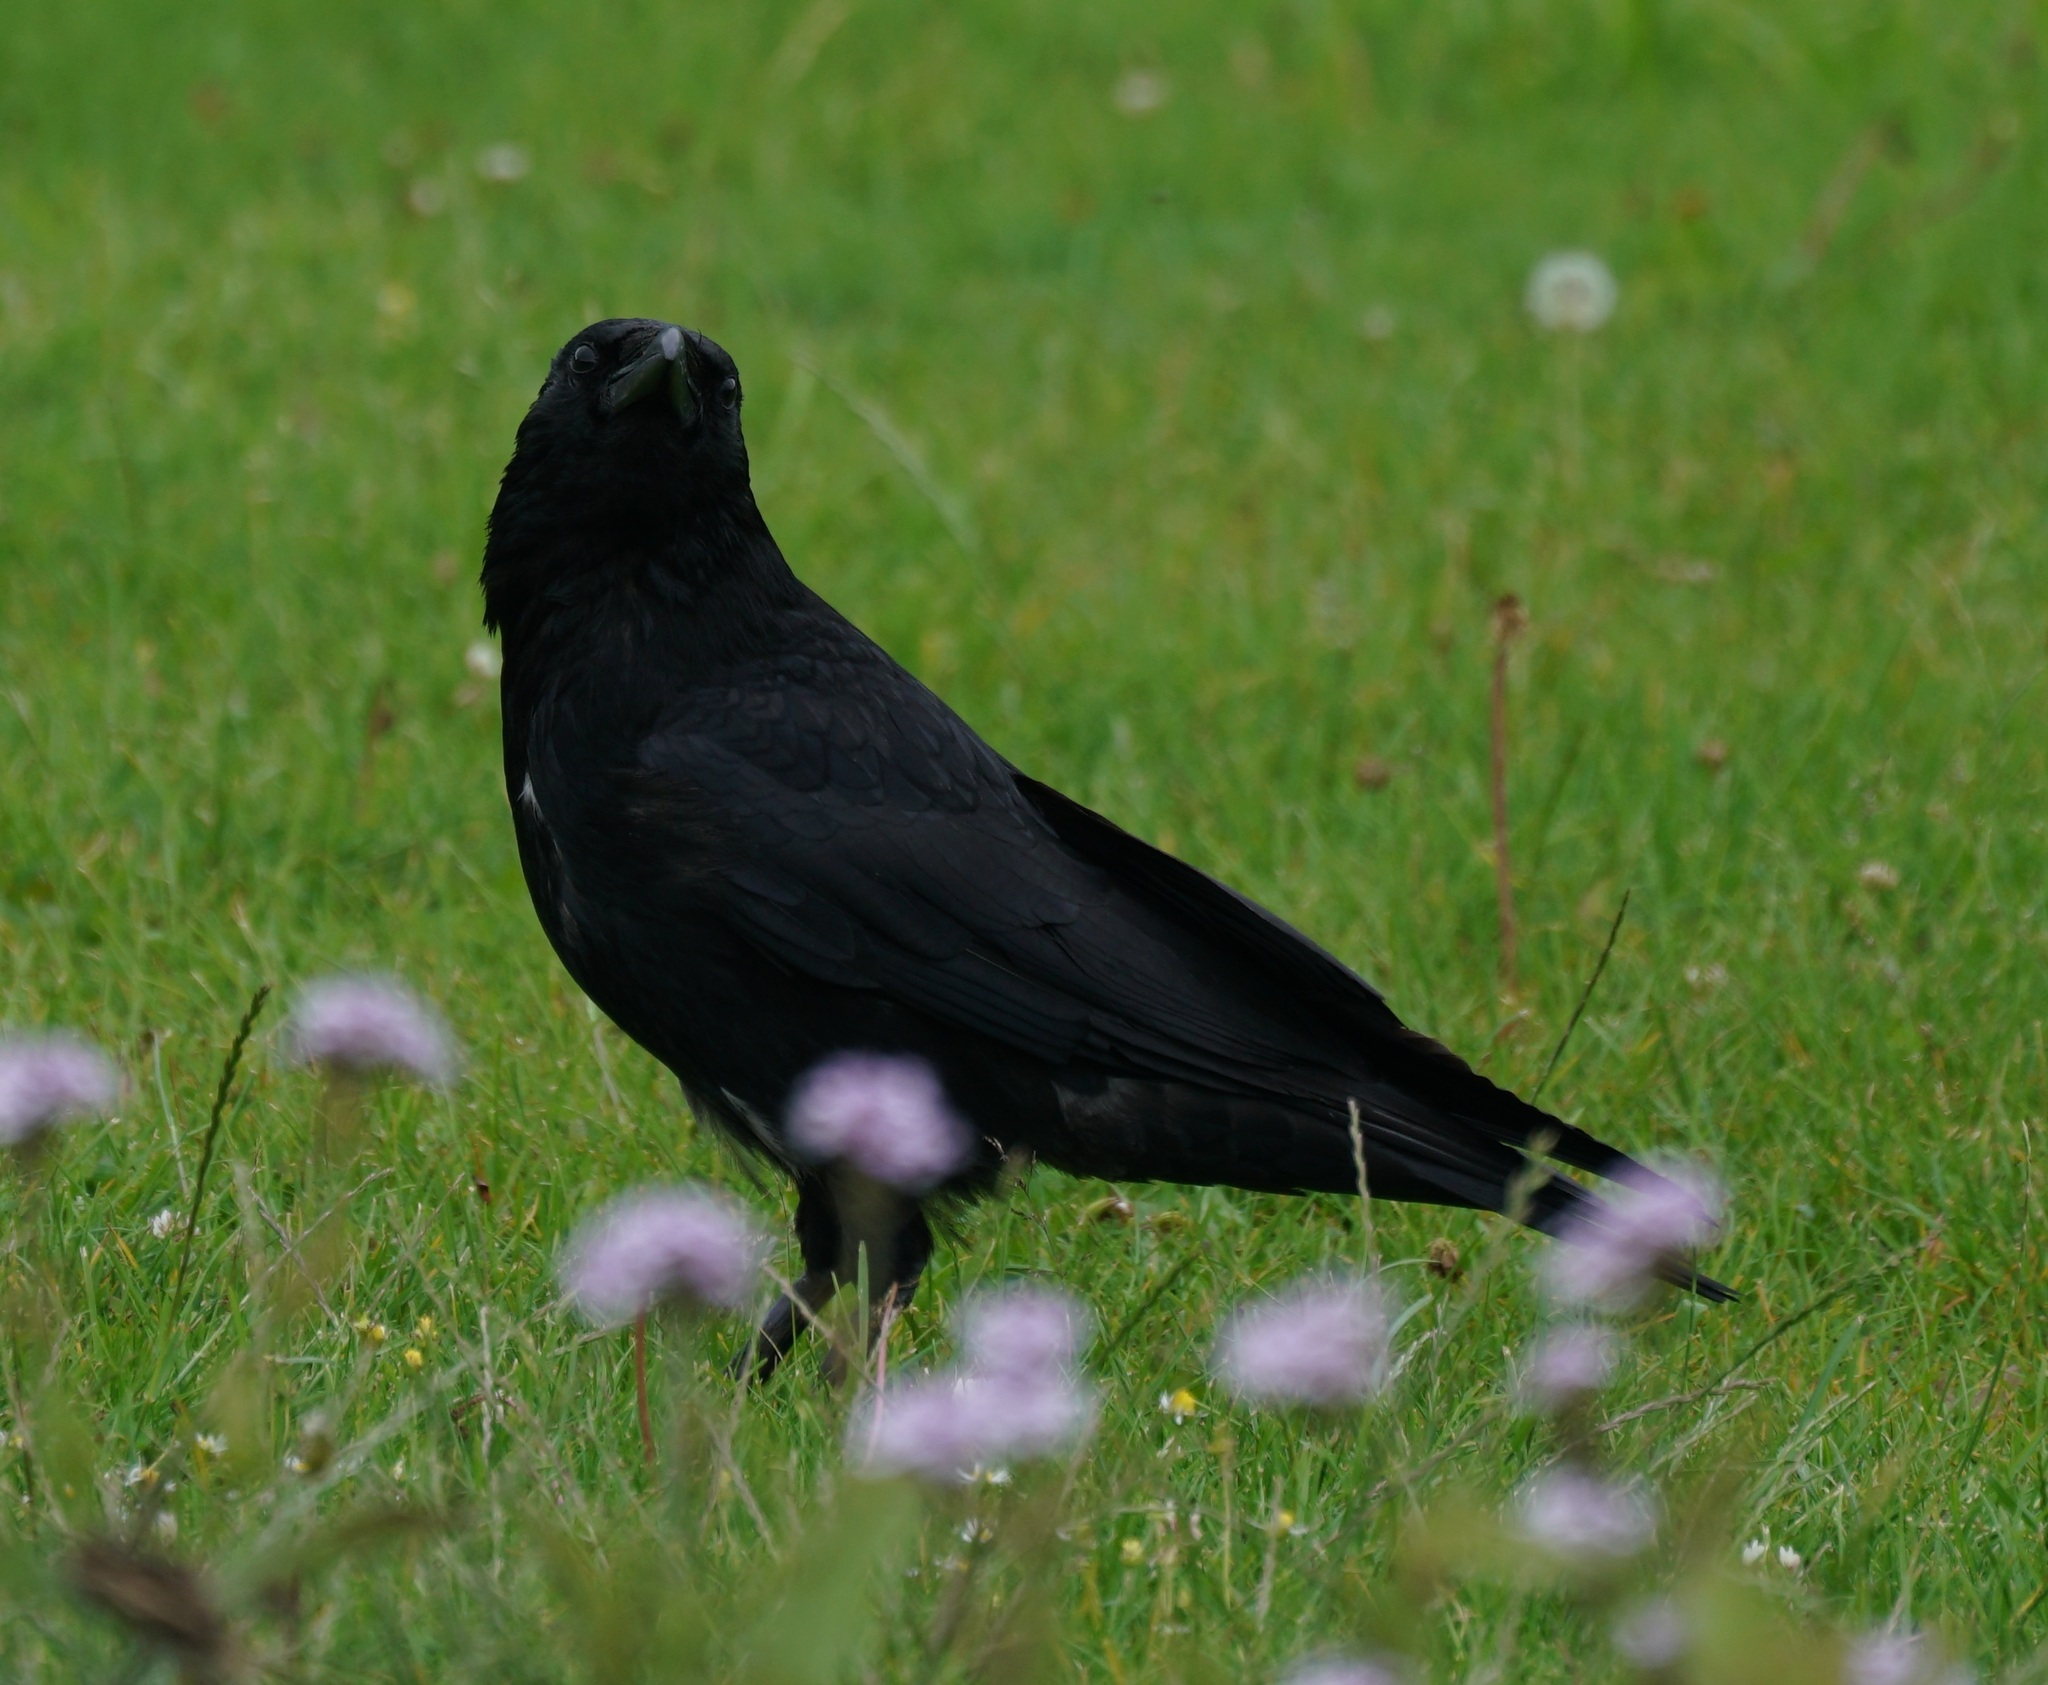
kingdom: Animalia
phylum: Chordata
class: Aves
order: Passeriformes
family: Corvidae
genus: Corvus
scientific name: Corvus corone
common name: Carrion crow
